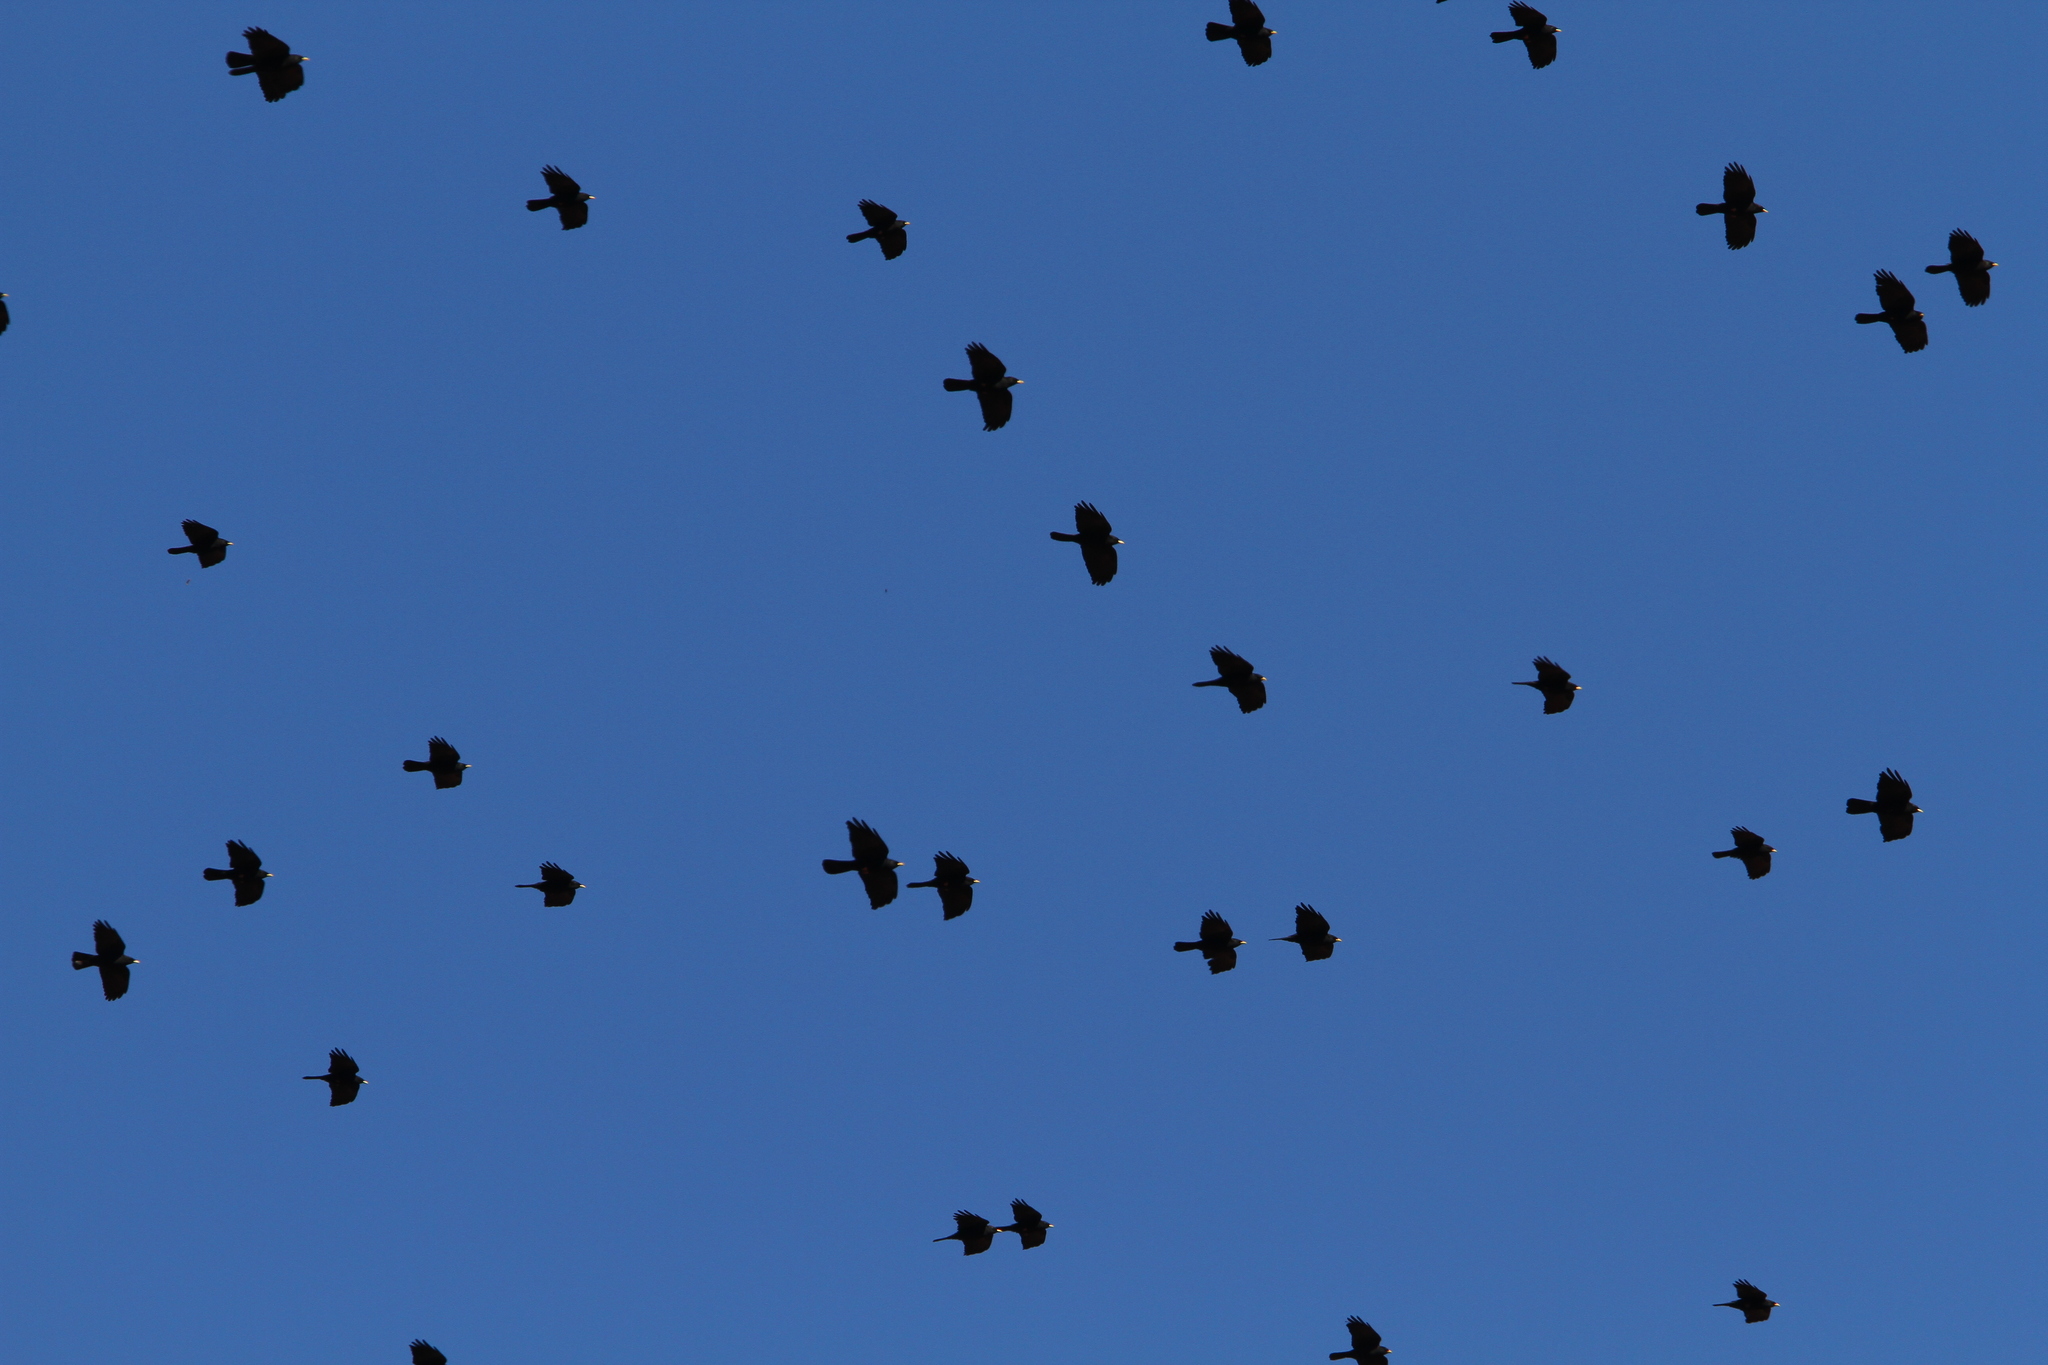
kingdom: Animalia
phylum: Chordata
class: Aves
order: Passeriformes
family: Corvidae
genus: Pyrrhocorax
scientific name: Pyrrhocorax graculus
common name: Alpine chough
